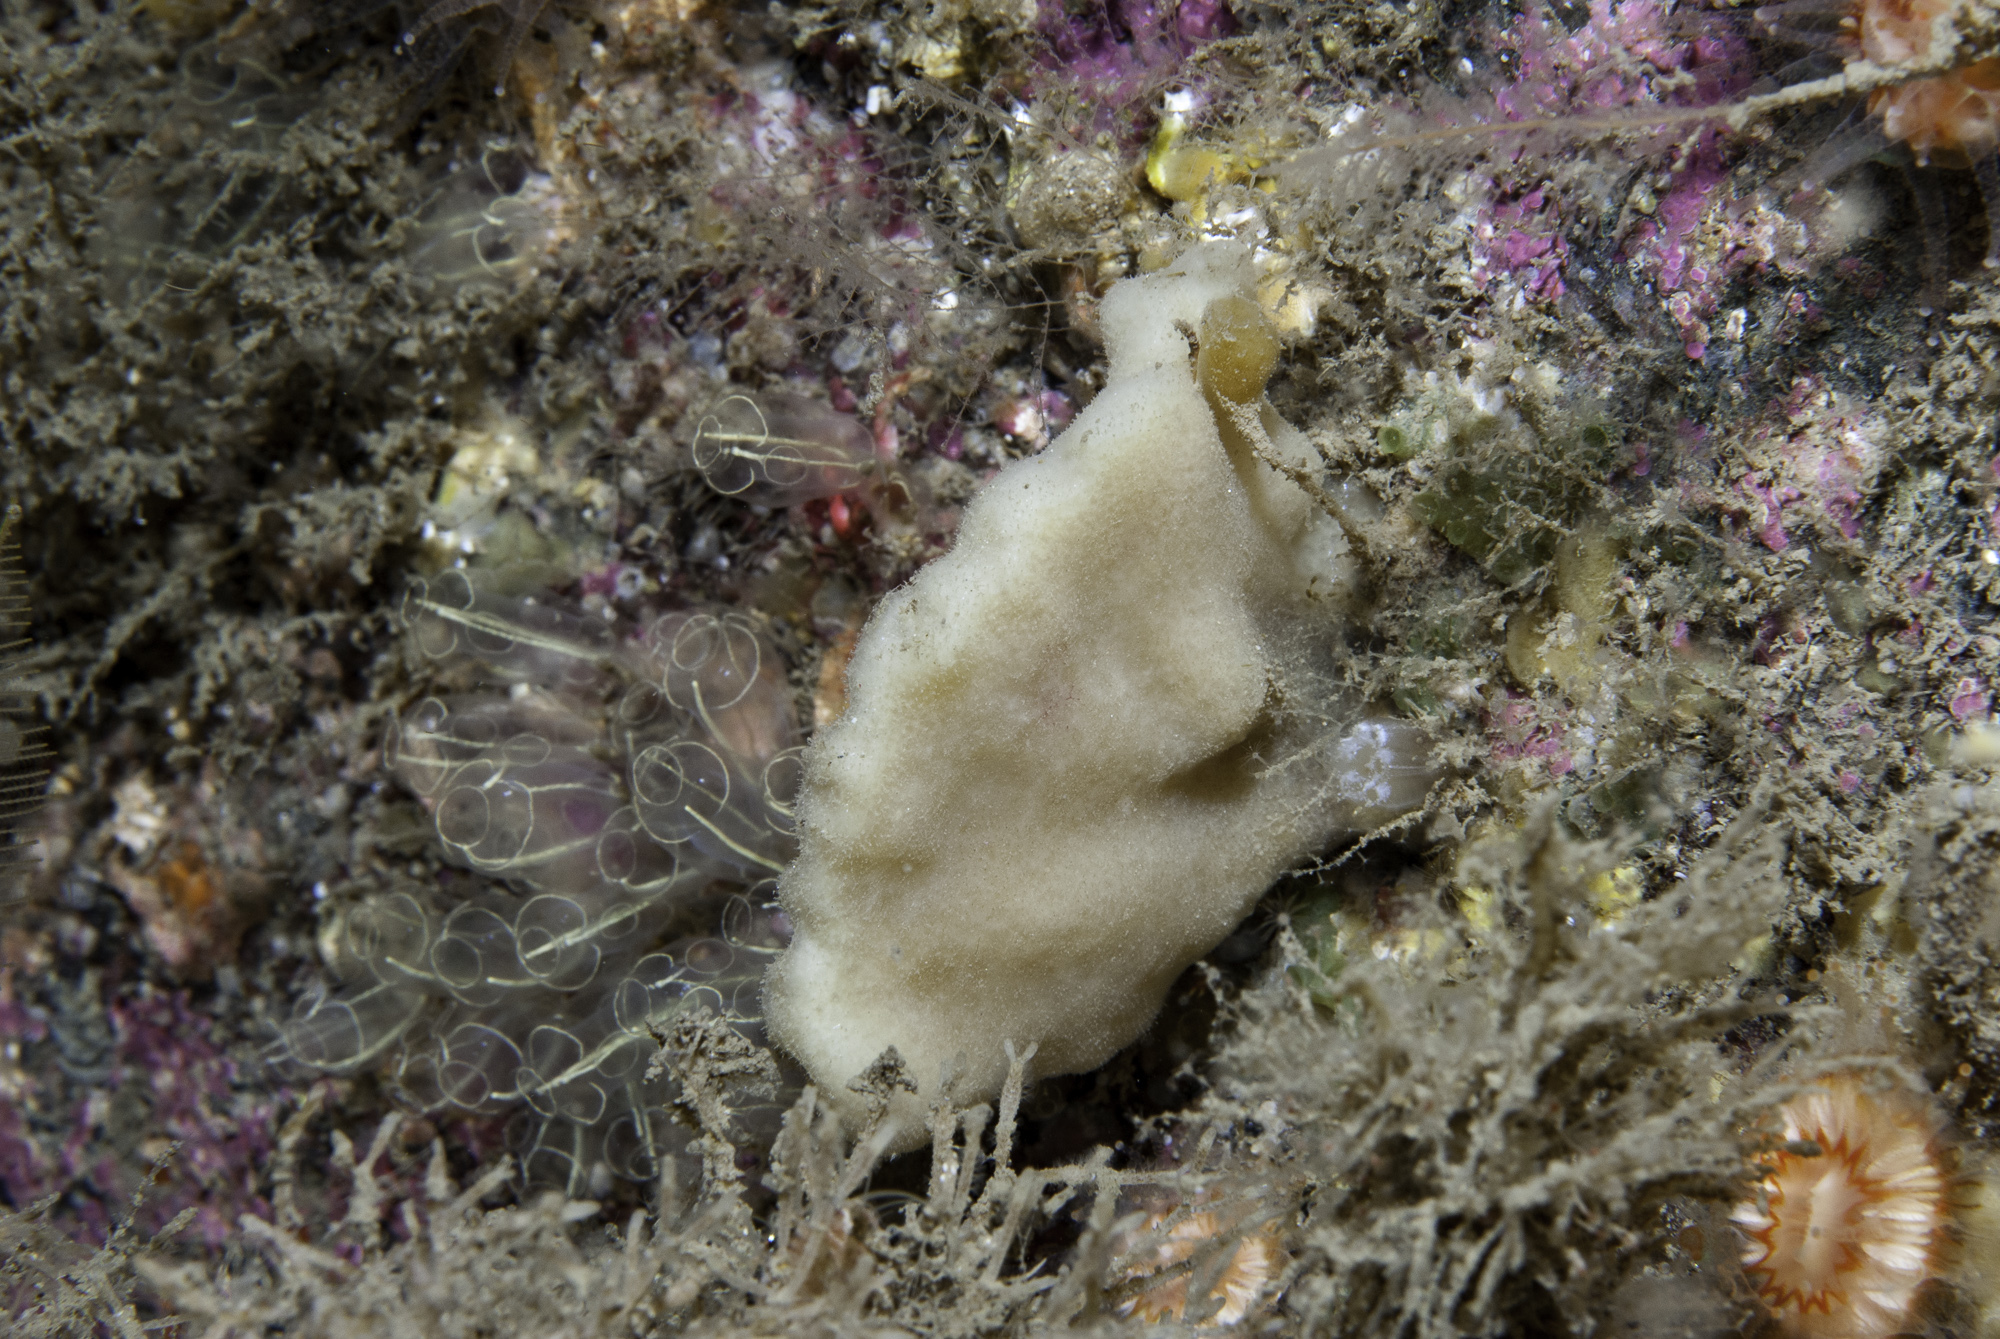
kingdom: Animalia
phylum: Porifera
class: Demospongiae
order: Dendroceratida
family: Dictyodendrillidae
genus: Spongionella
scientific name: Spongionella pulchella
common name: Gorgeous horny sponge
